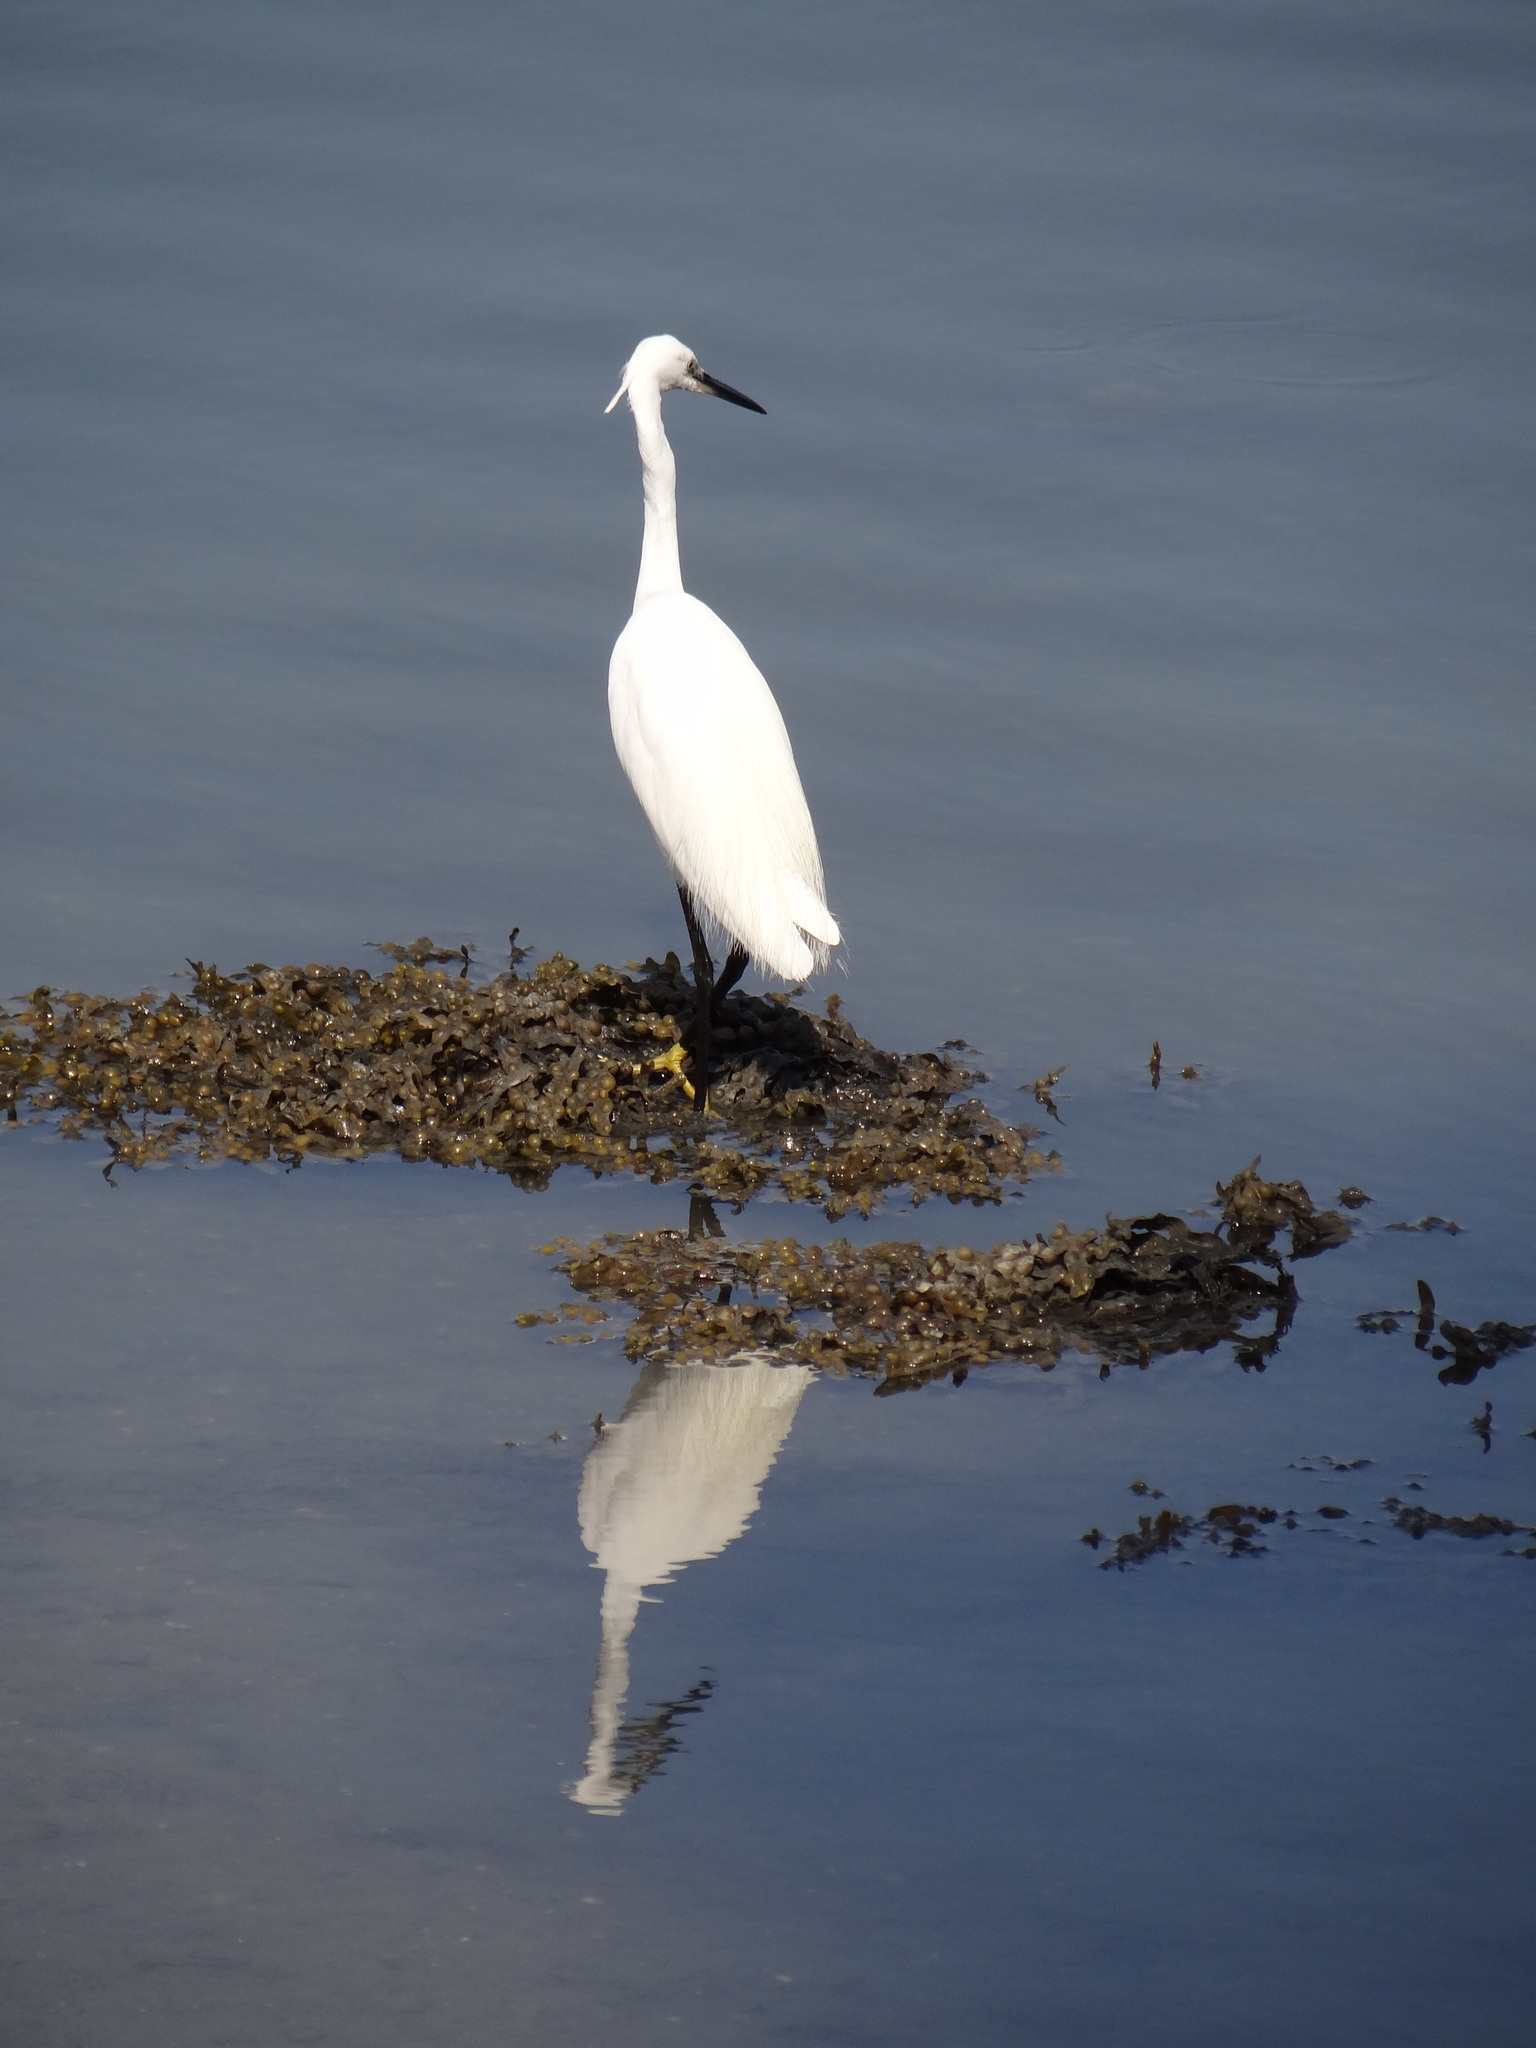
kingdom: Animalia
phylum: Chordata
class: Aves
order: Pelecaniformes
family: Ardeidae
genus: Egretta
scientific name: Egretta garzetta
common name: Little egret
